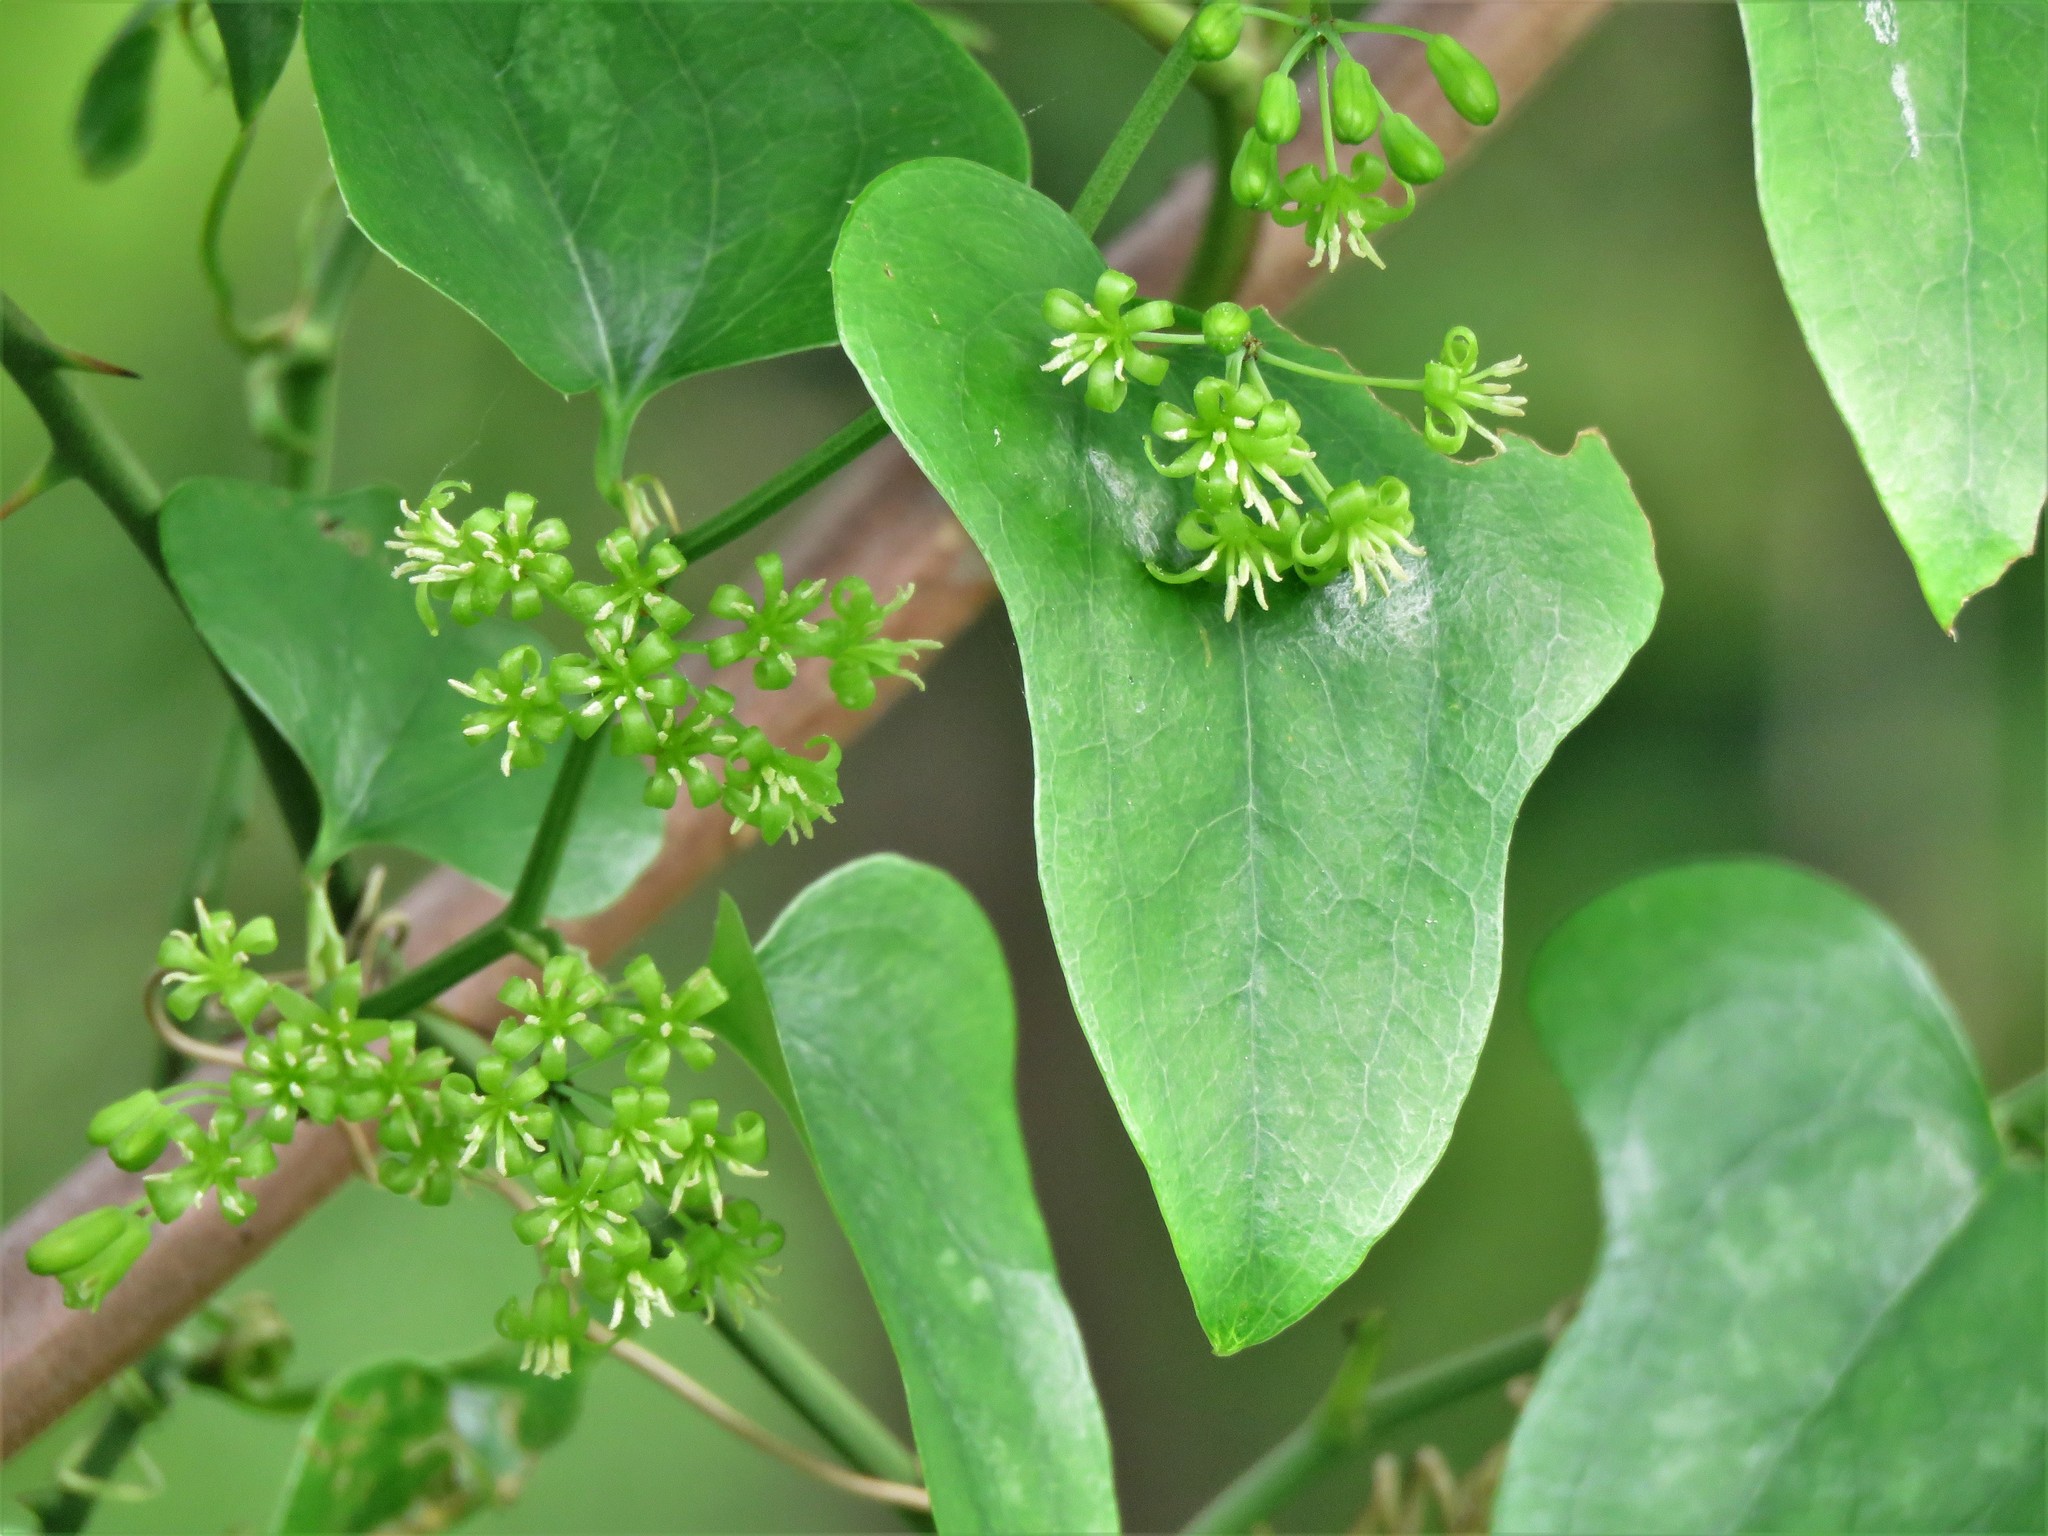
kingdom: Plantae
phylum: Tracheophyta
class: Magnoliopsida
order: Ranunculales
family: Menispermaceae
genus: Cocculus
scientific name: Cocculus carolinus
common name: Carolina moonseed
